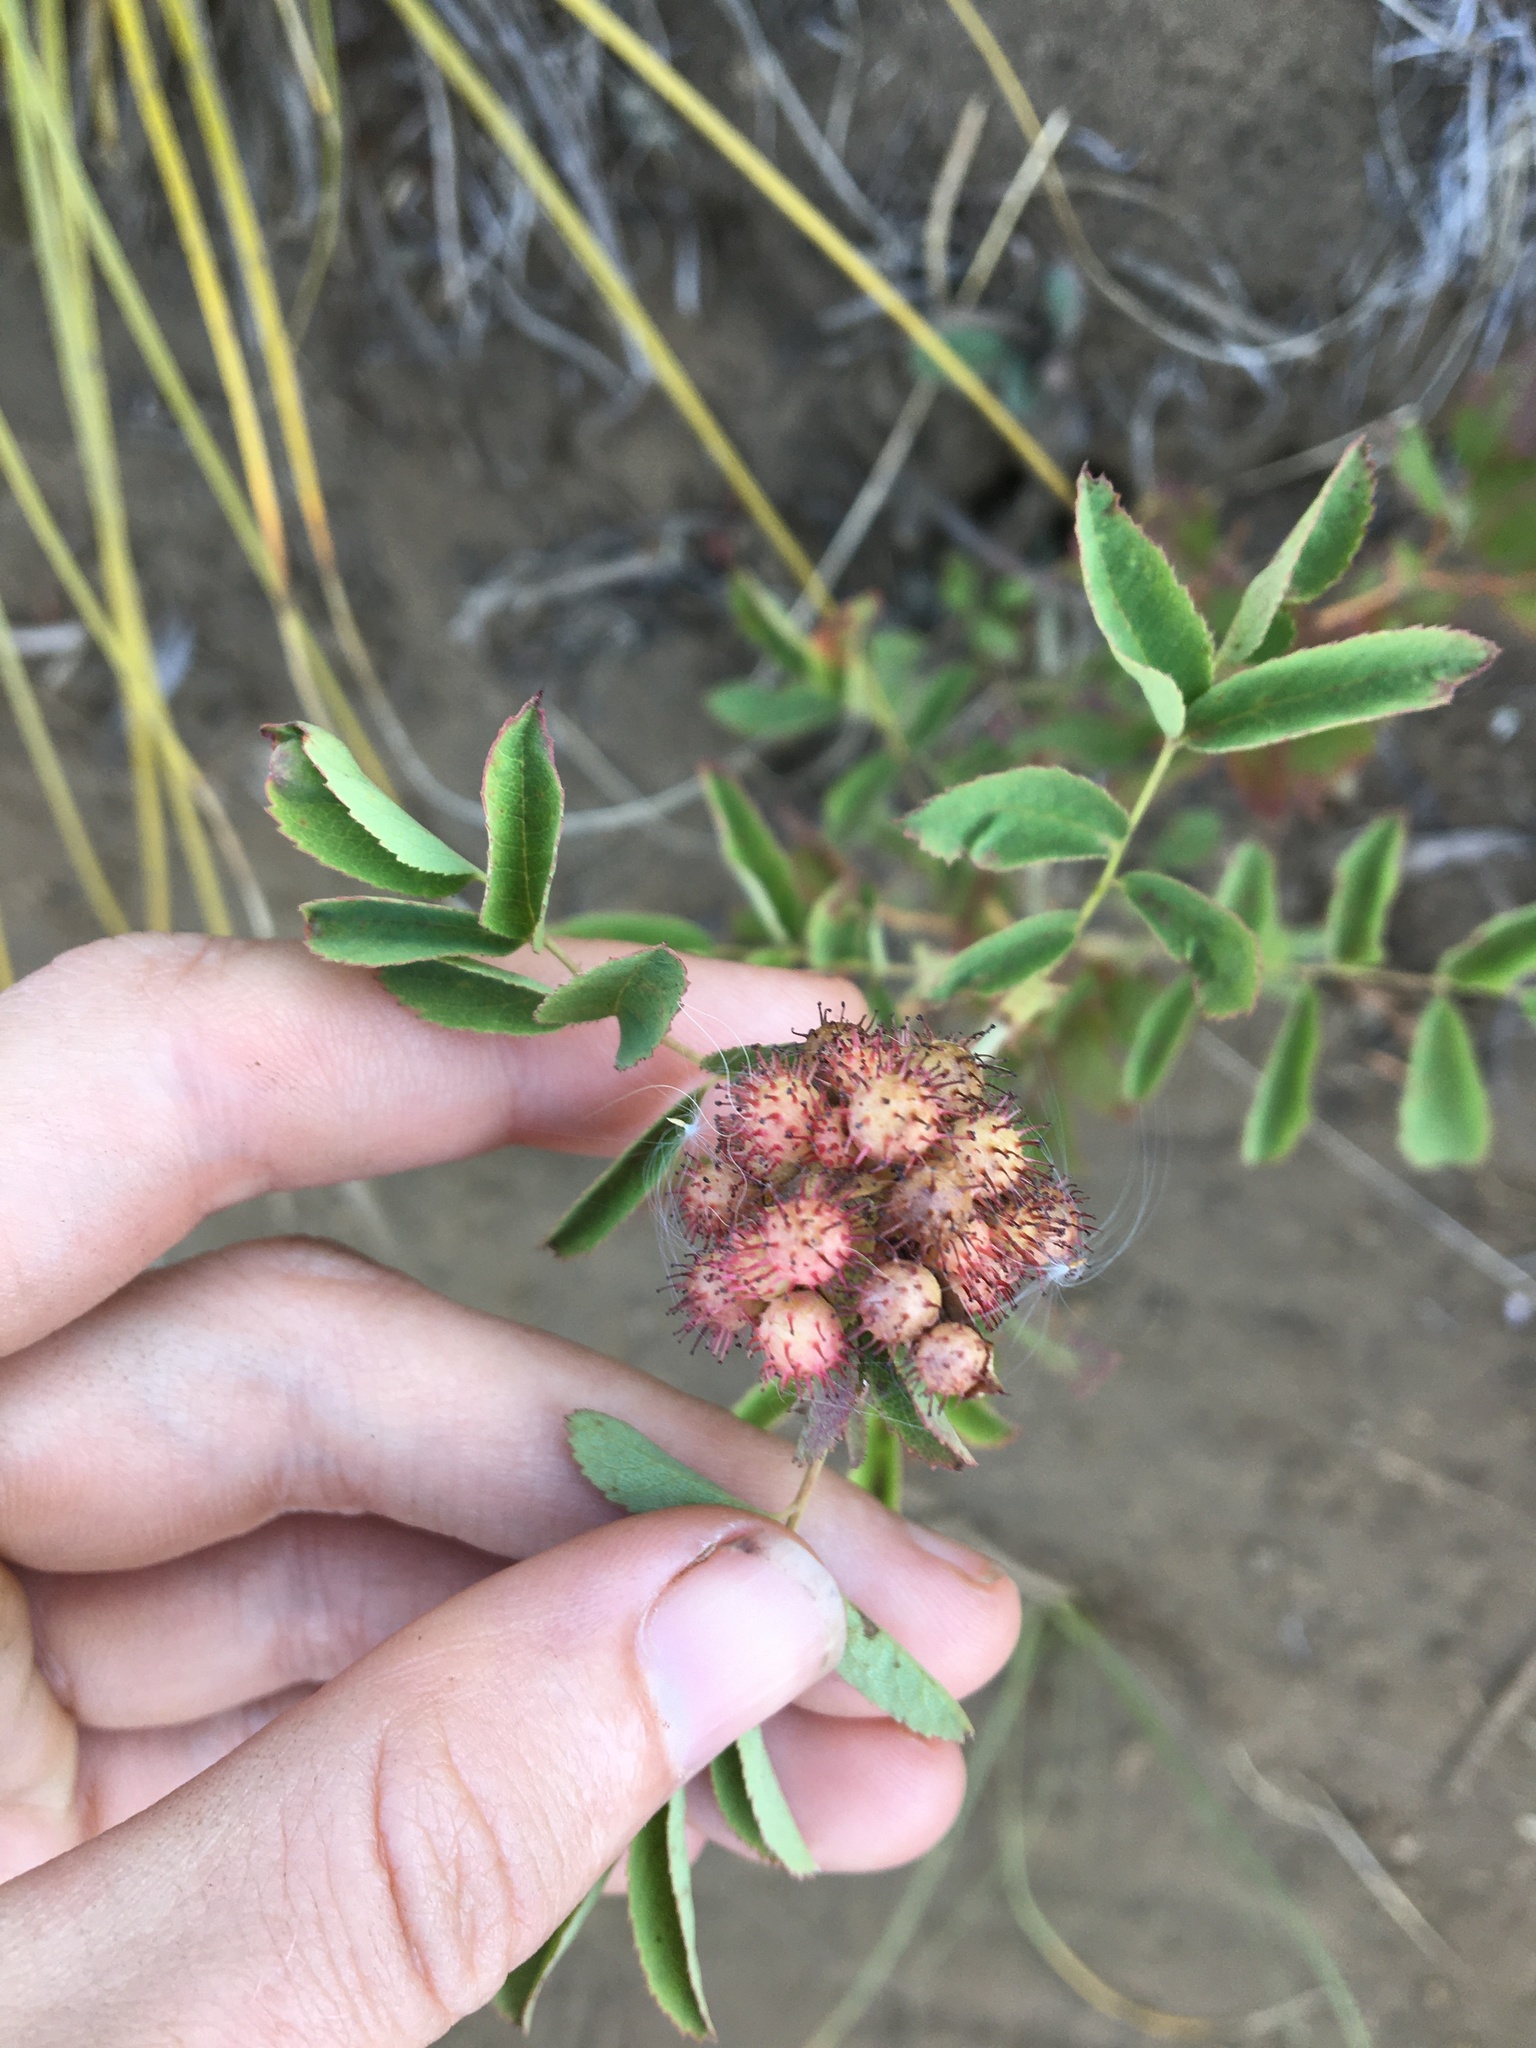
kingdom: Animalia
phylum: Arthropoda
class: Insecta
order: Hymenoptera
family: Cynipidae
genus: Diplolepis
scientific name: Diplolepis polita
